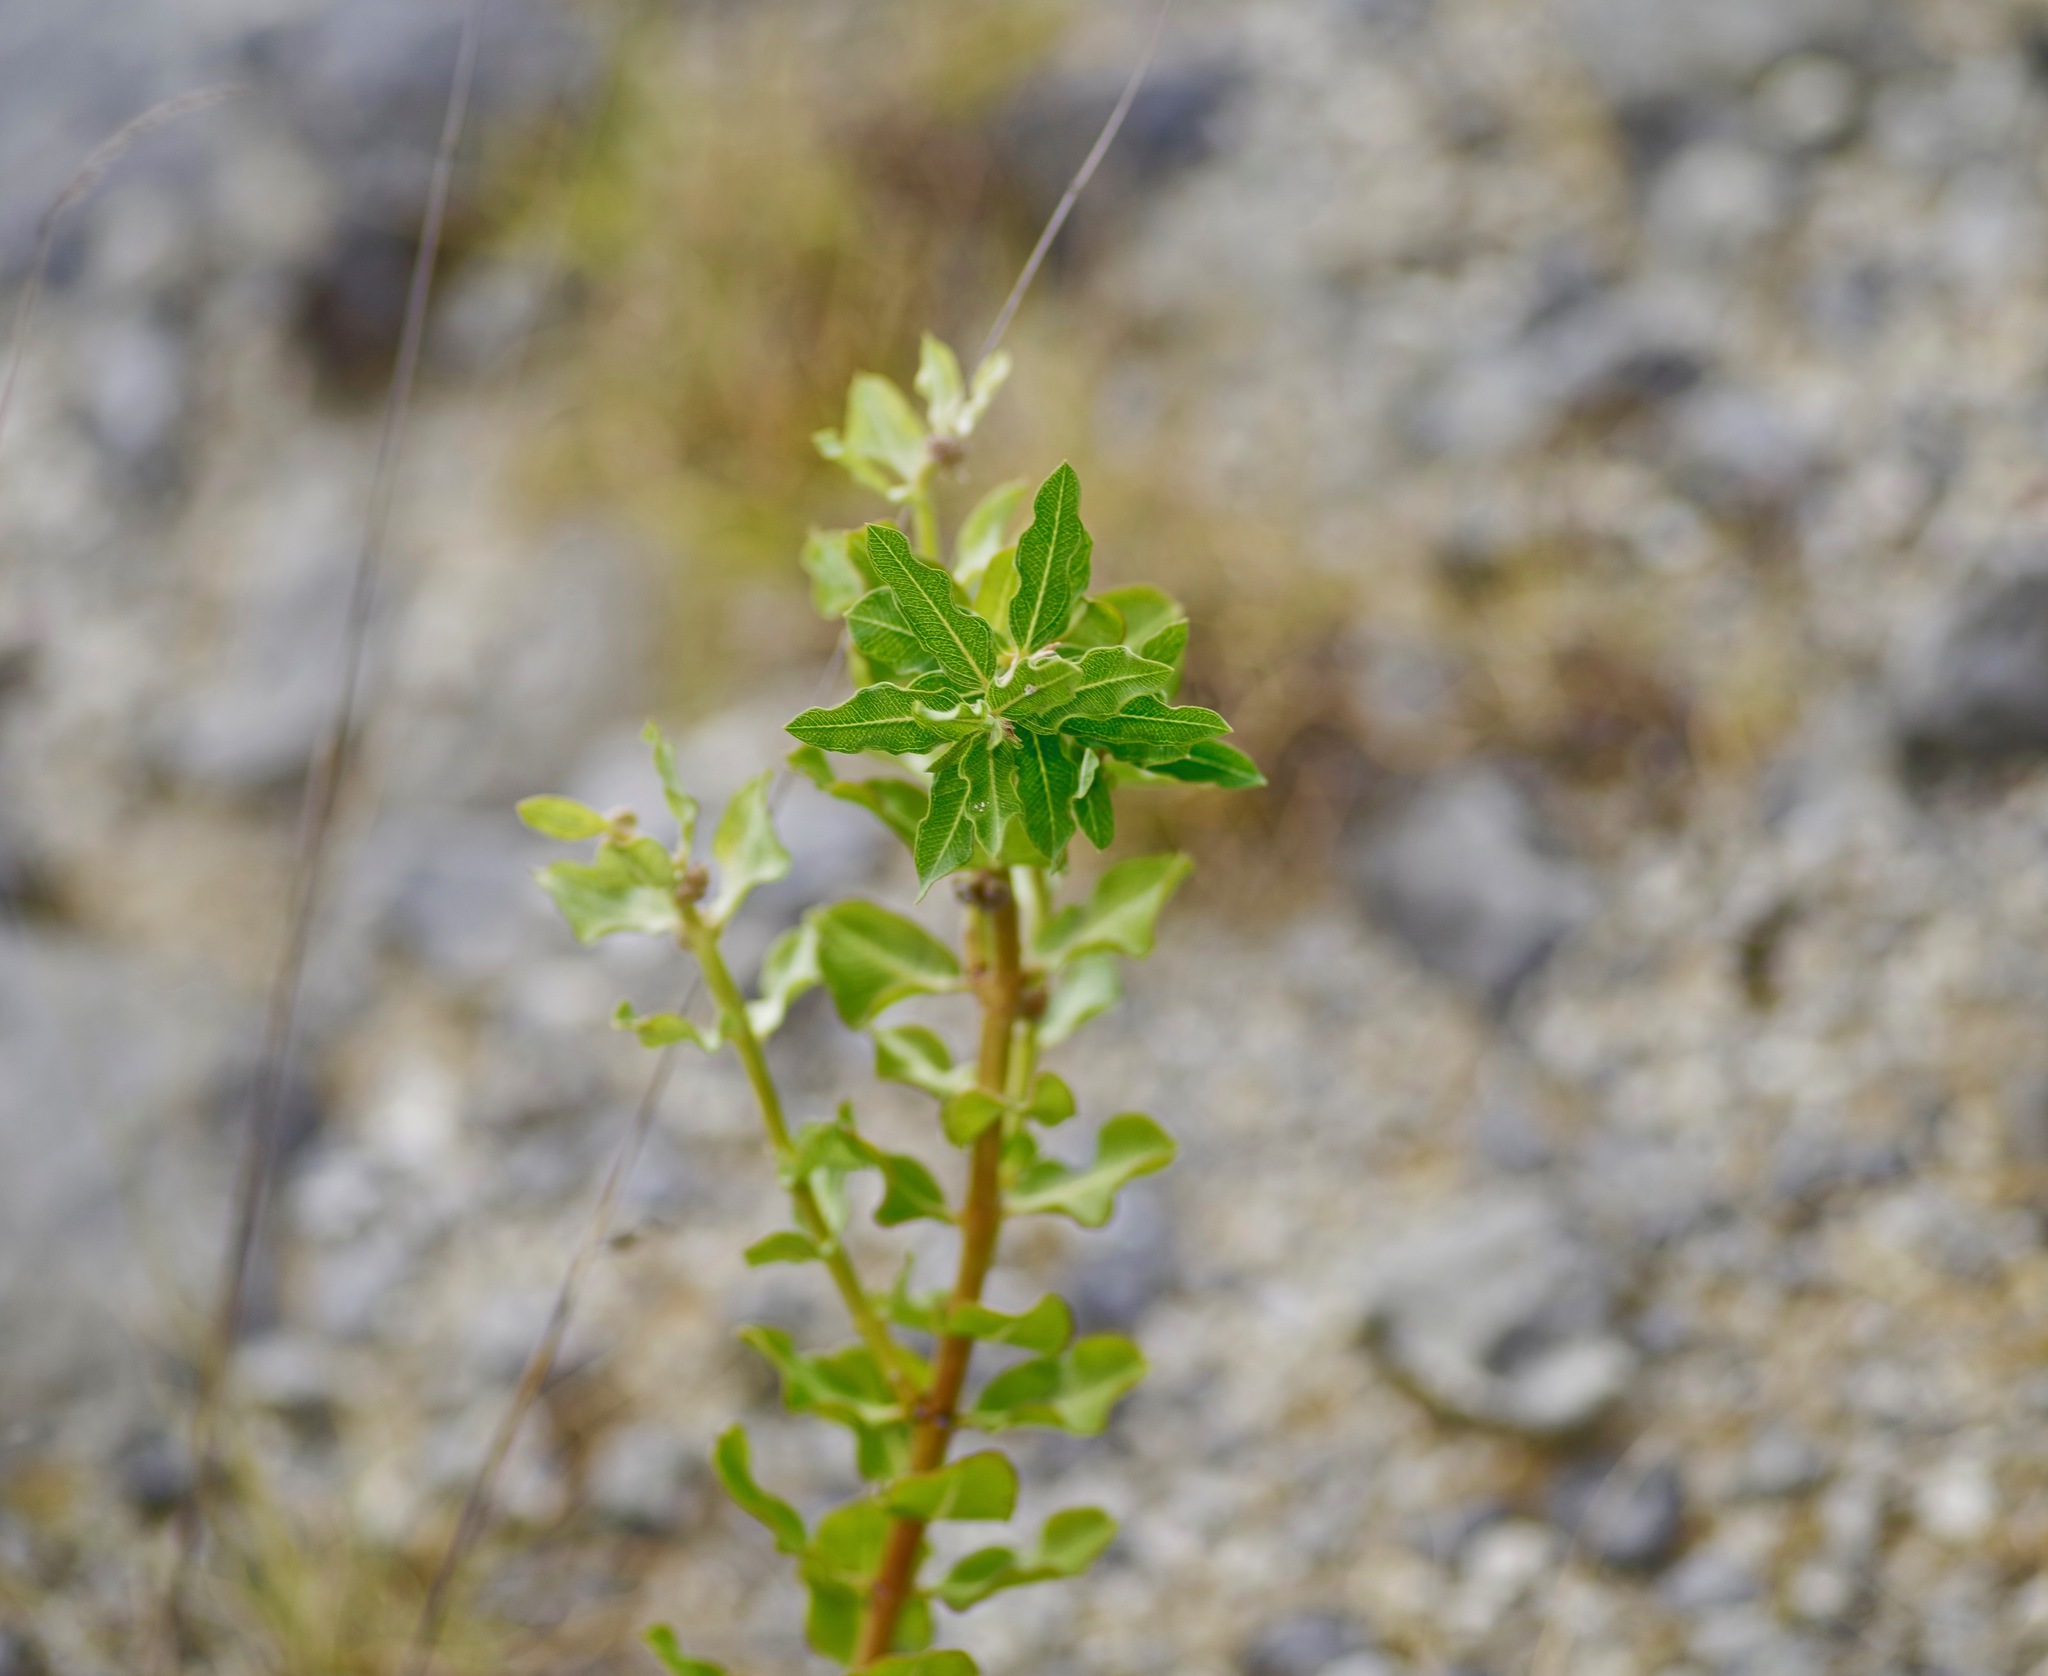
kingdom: Plantae
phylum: Tracheophyta
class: Magnoliopsida
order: Gentianales
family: Apocynaceae
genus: Asclepias
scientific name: Asclepias viridiflora
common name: Green comet milkweed
